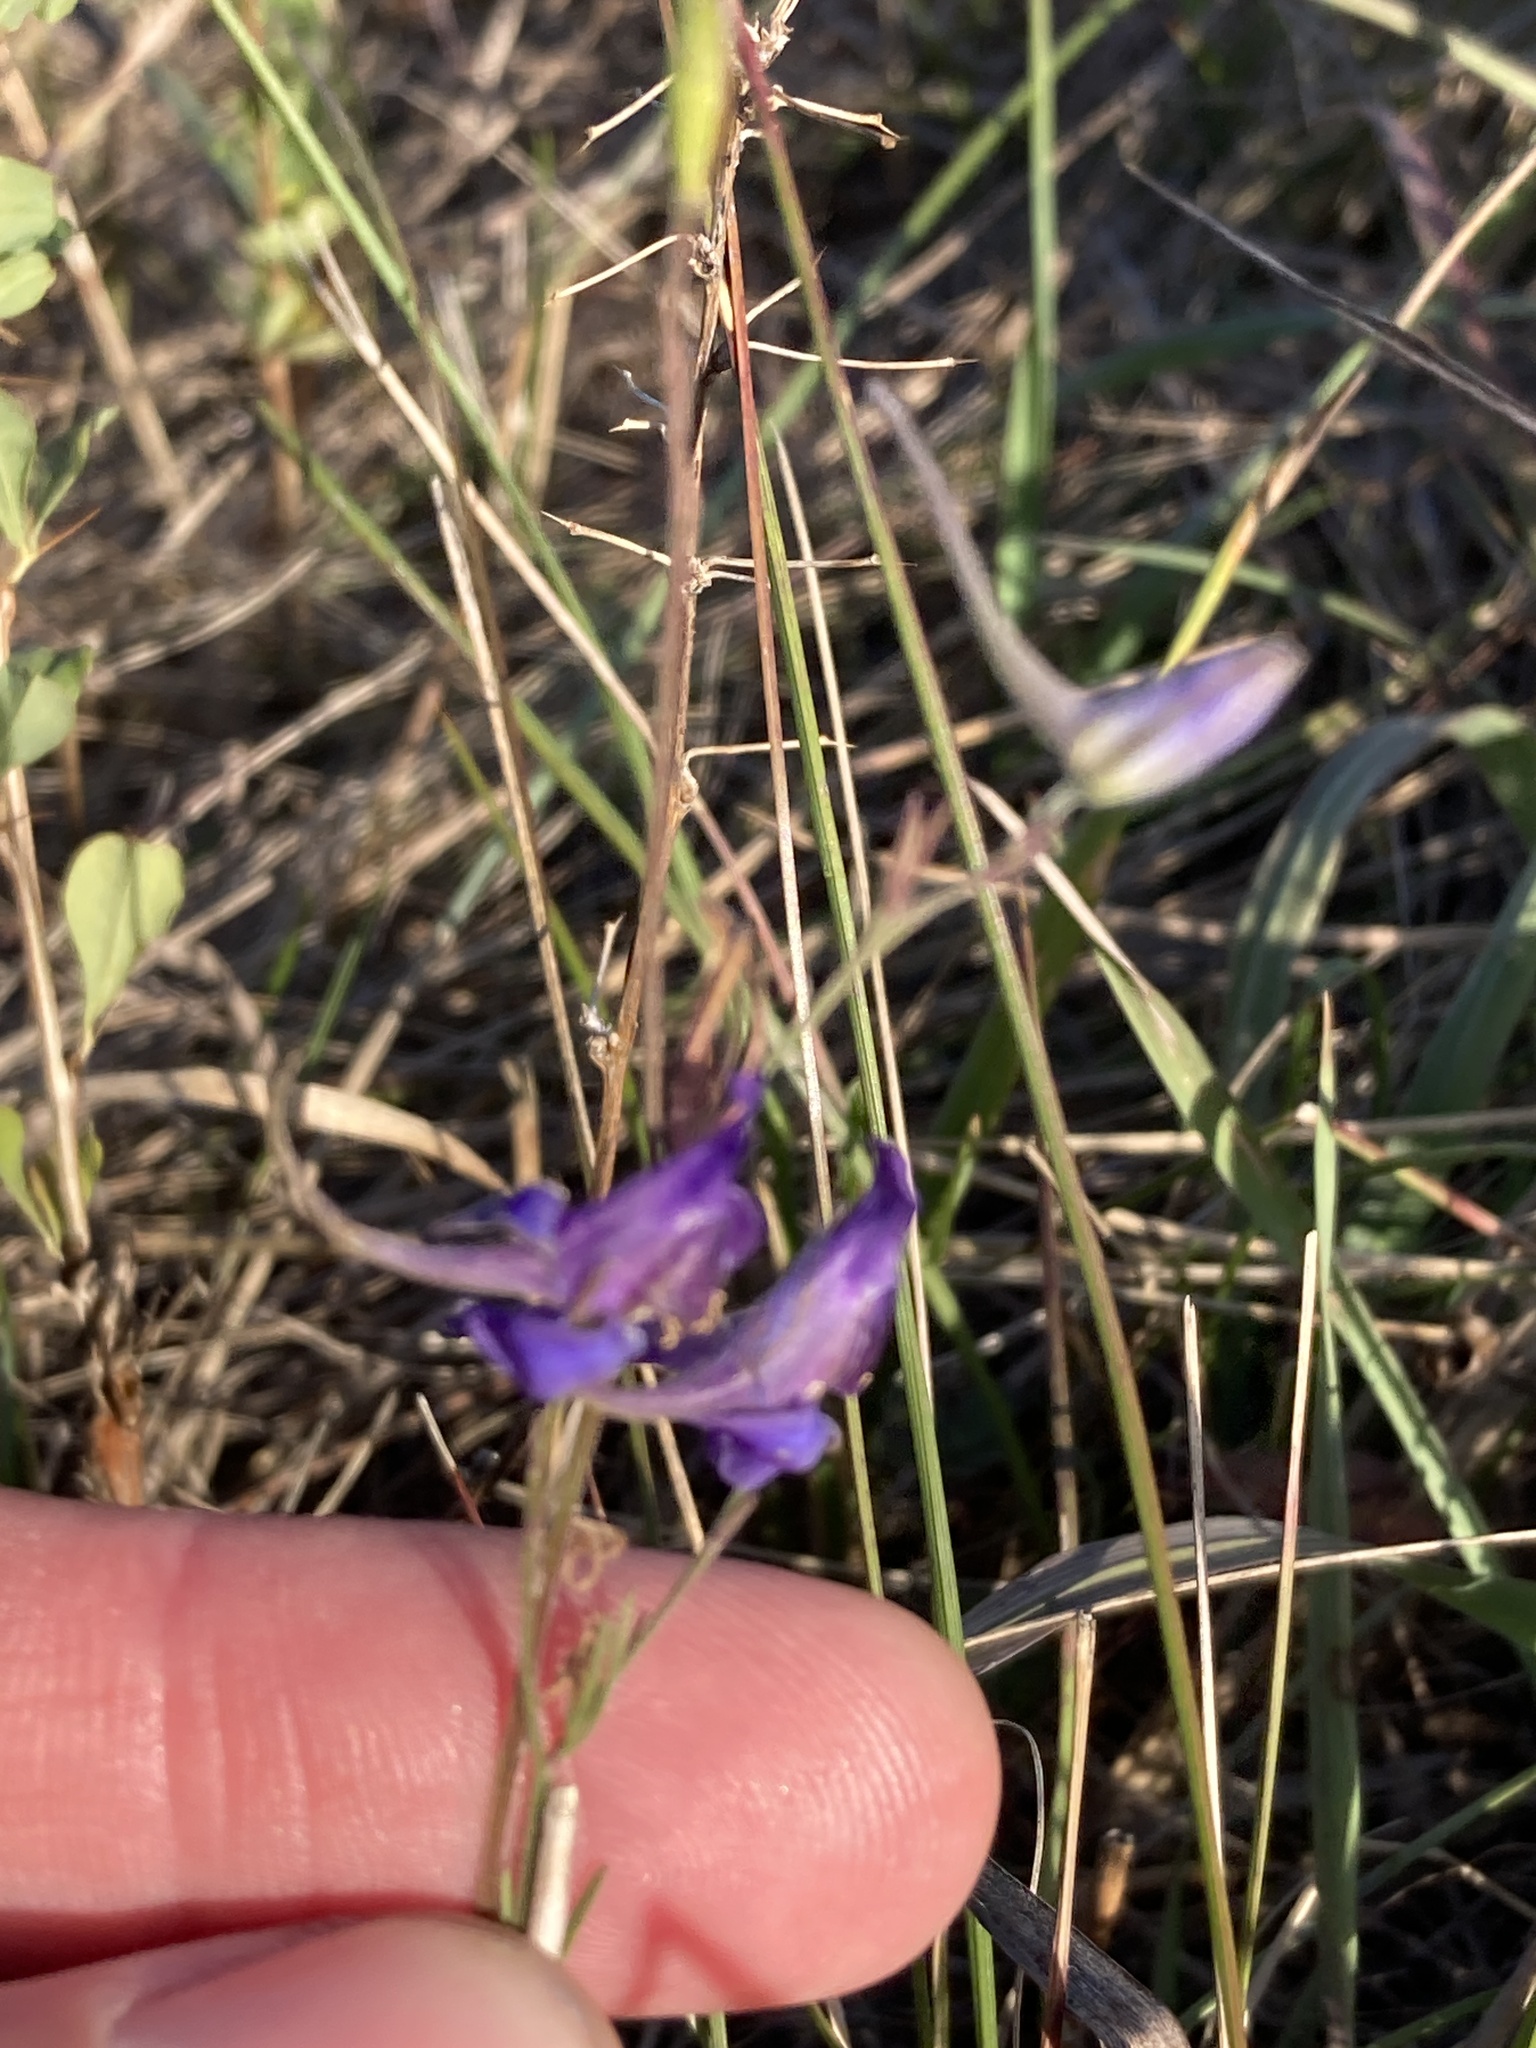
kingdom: Plantae
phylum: Tracheophyta
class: Magnoliopsida
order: Ranunculales
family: Ranunculaceae
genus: Delphinium
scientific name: Delphinium consolida
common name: Branching larkspur
